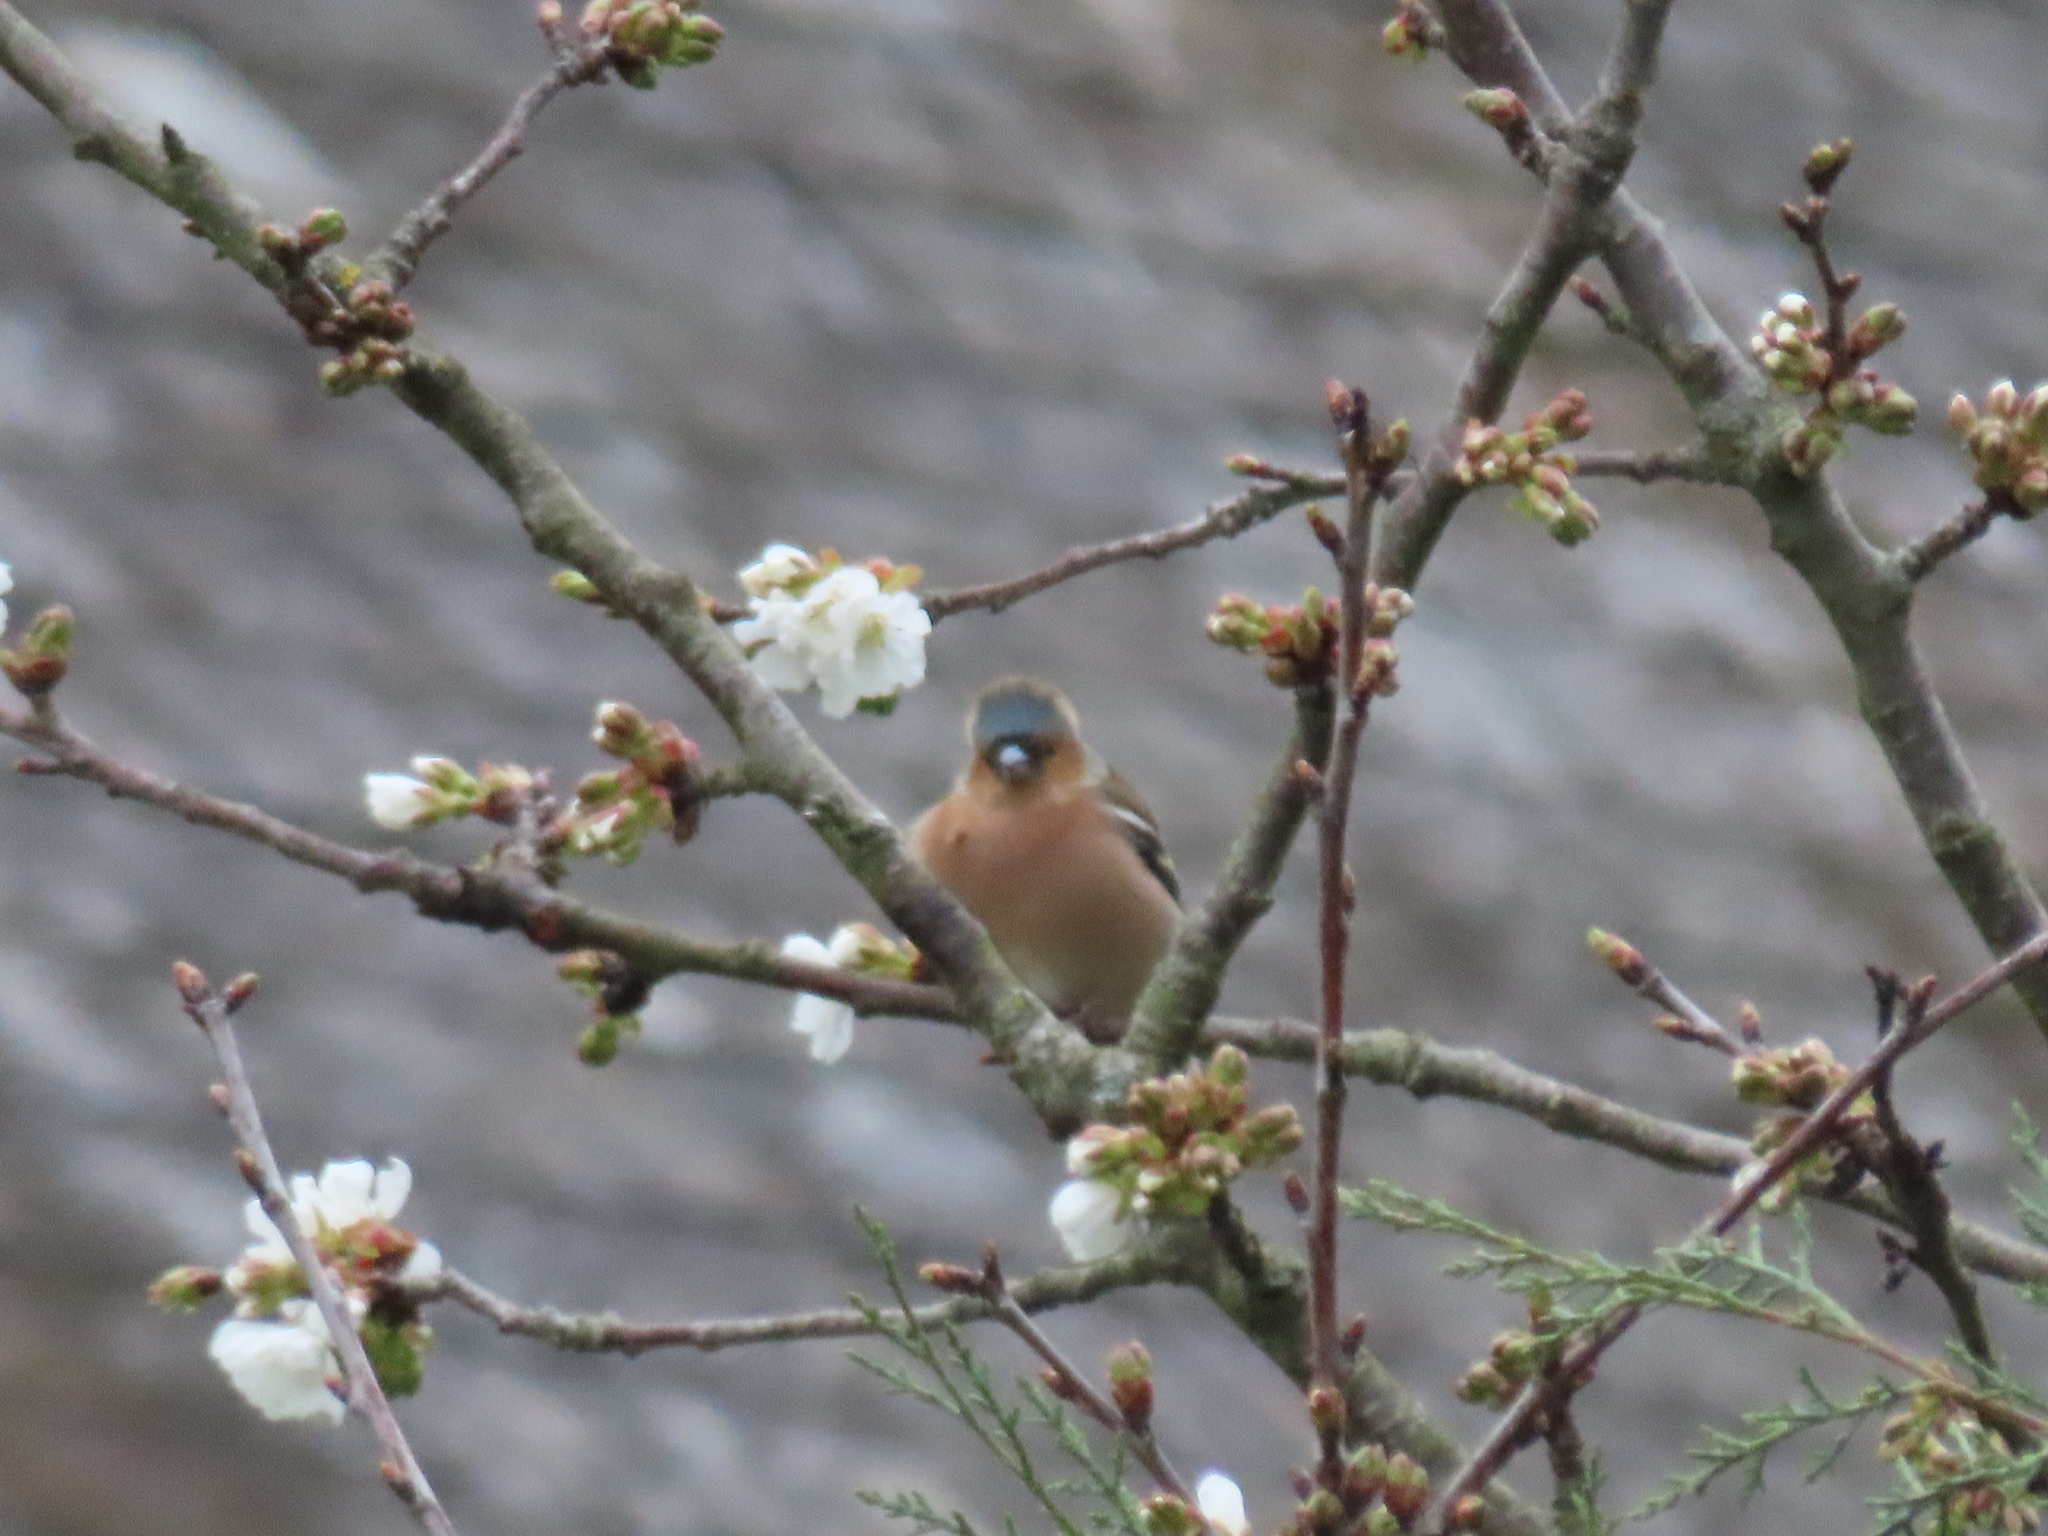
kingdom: Animalia
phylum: Chordata
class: Aves
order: Passeriformes
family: Fringillidae
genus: Fringilla
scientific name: Fringilla coelebs
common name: Common chaffinch
